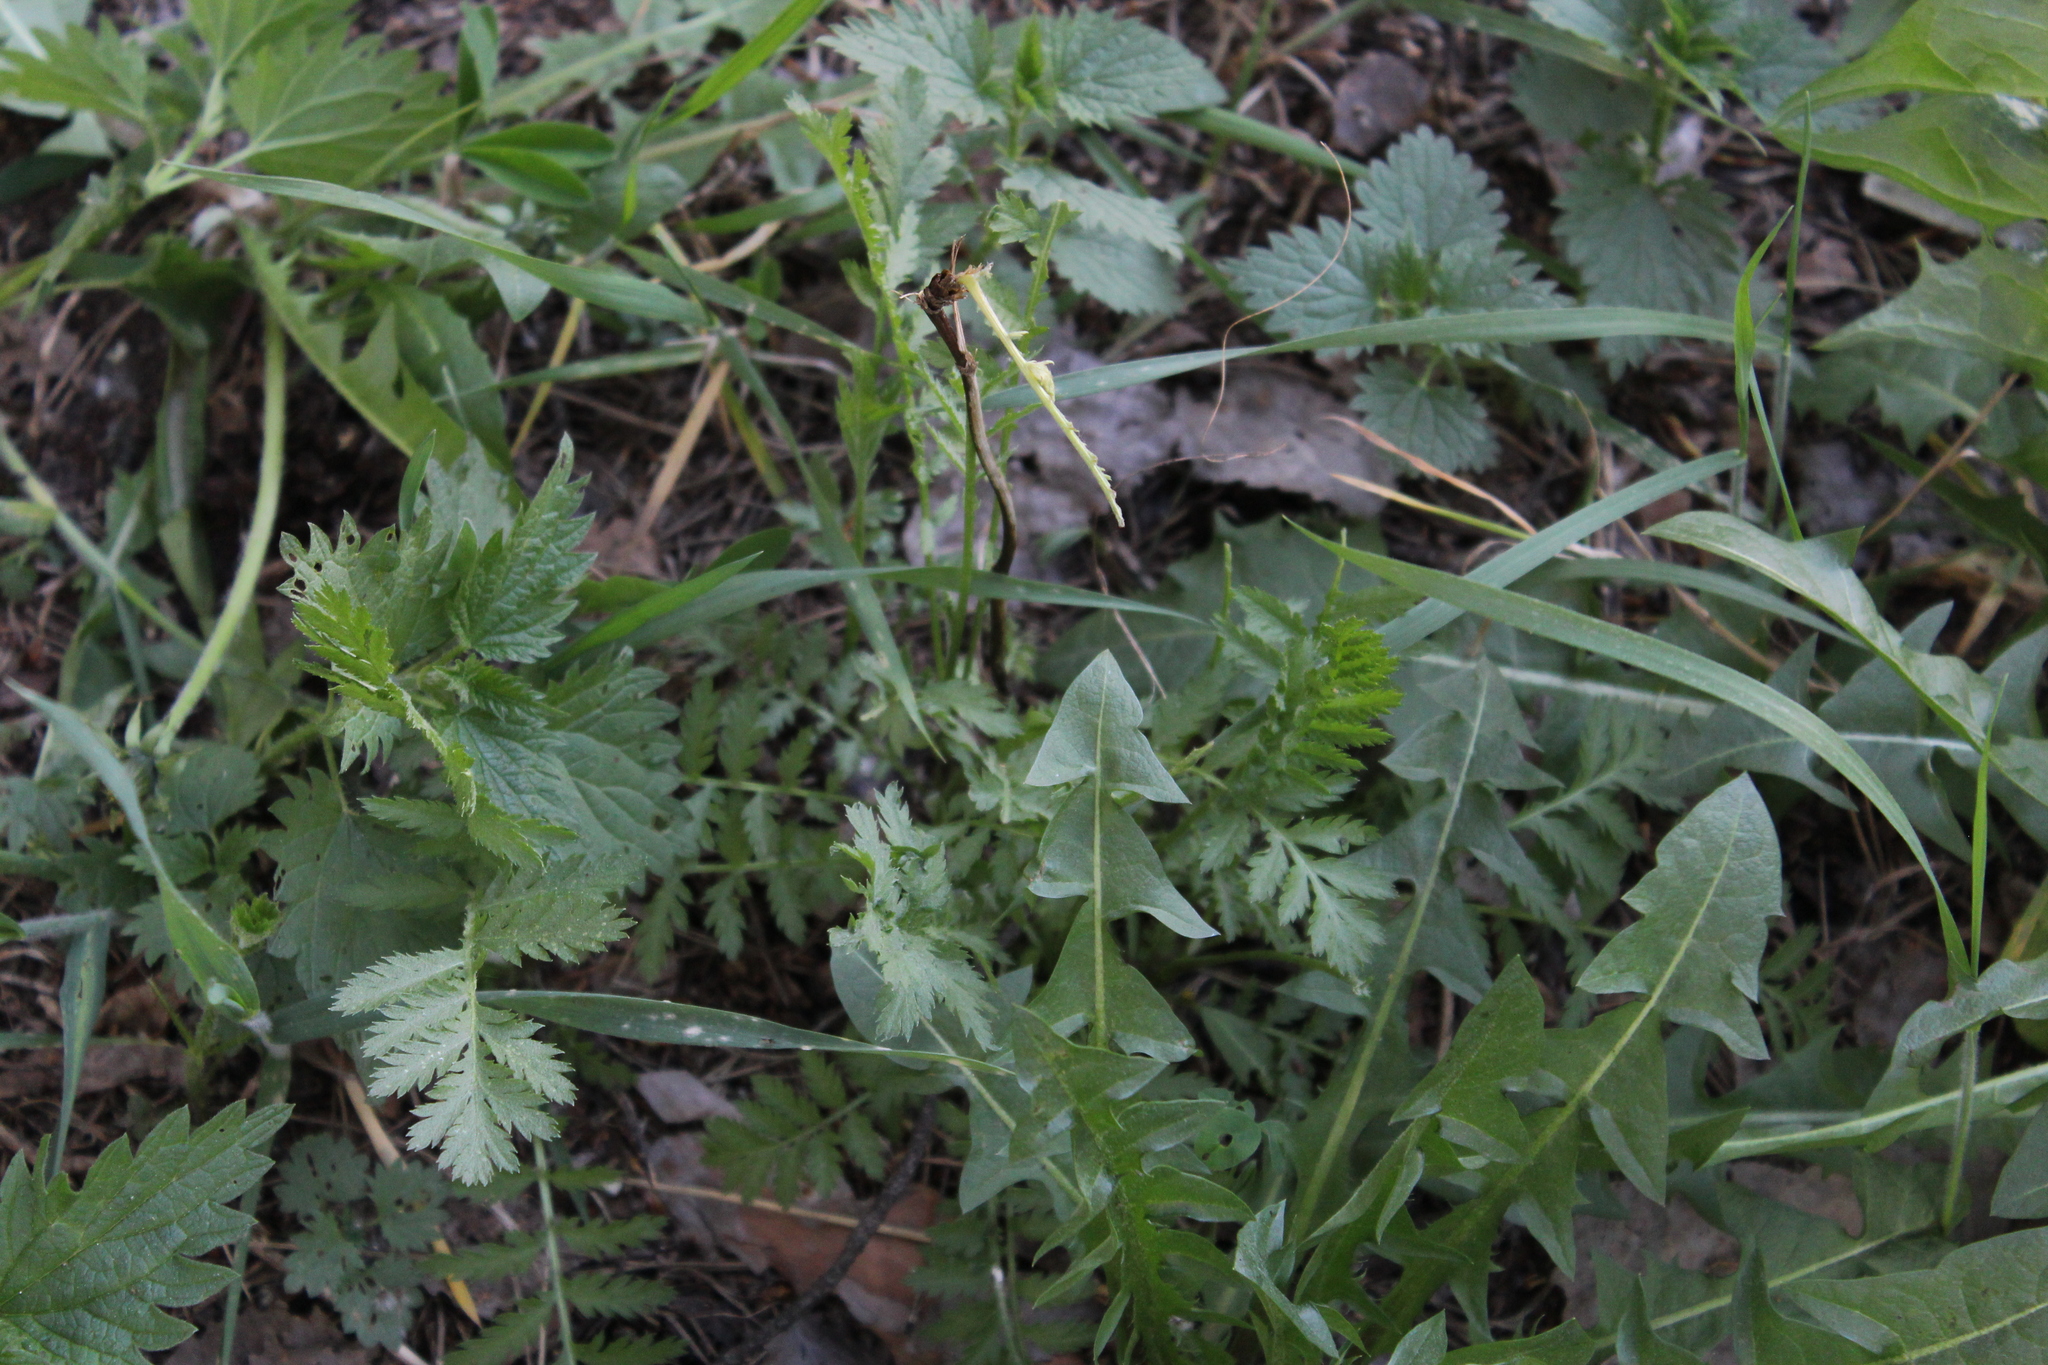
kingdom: Plantae
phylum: Tracheophyta
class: Magnoliopsida
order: Asterales
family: Asteraceae
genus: Tanacetum
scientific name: Tanacetum vulgare
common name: Common tansy
